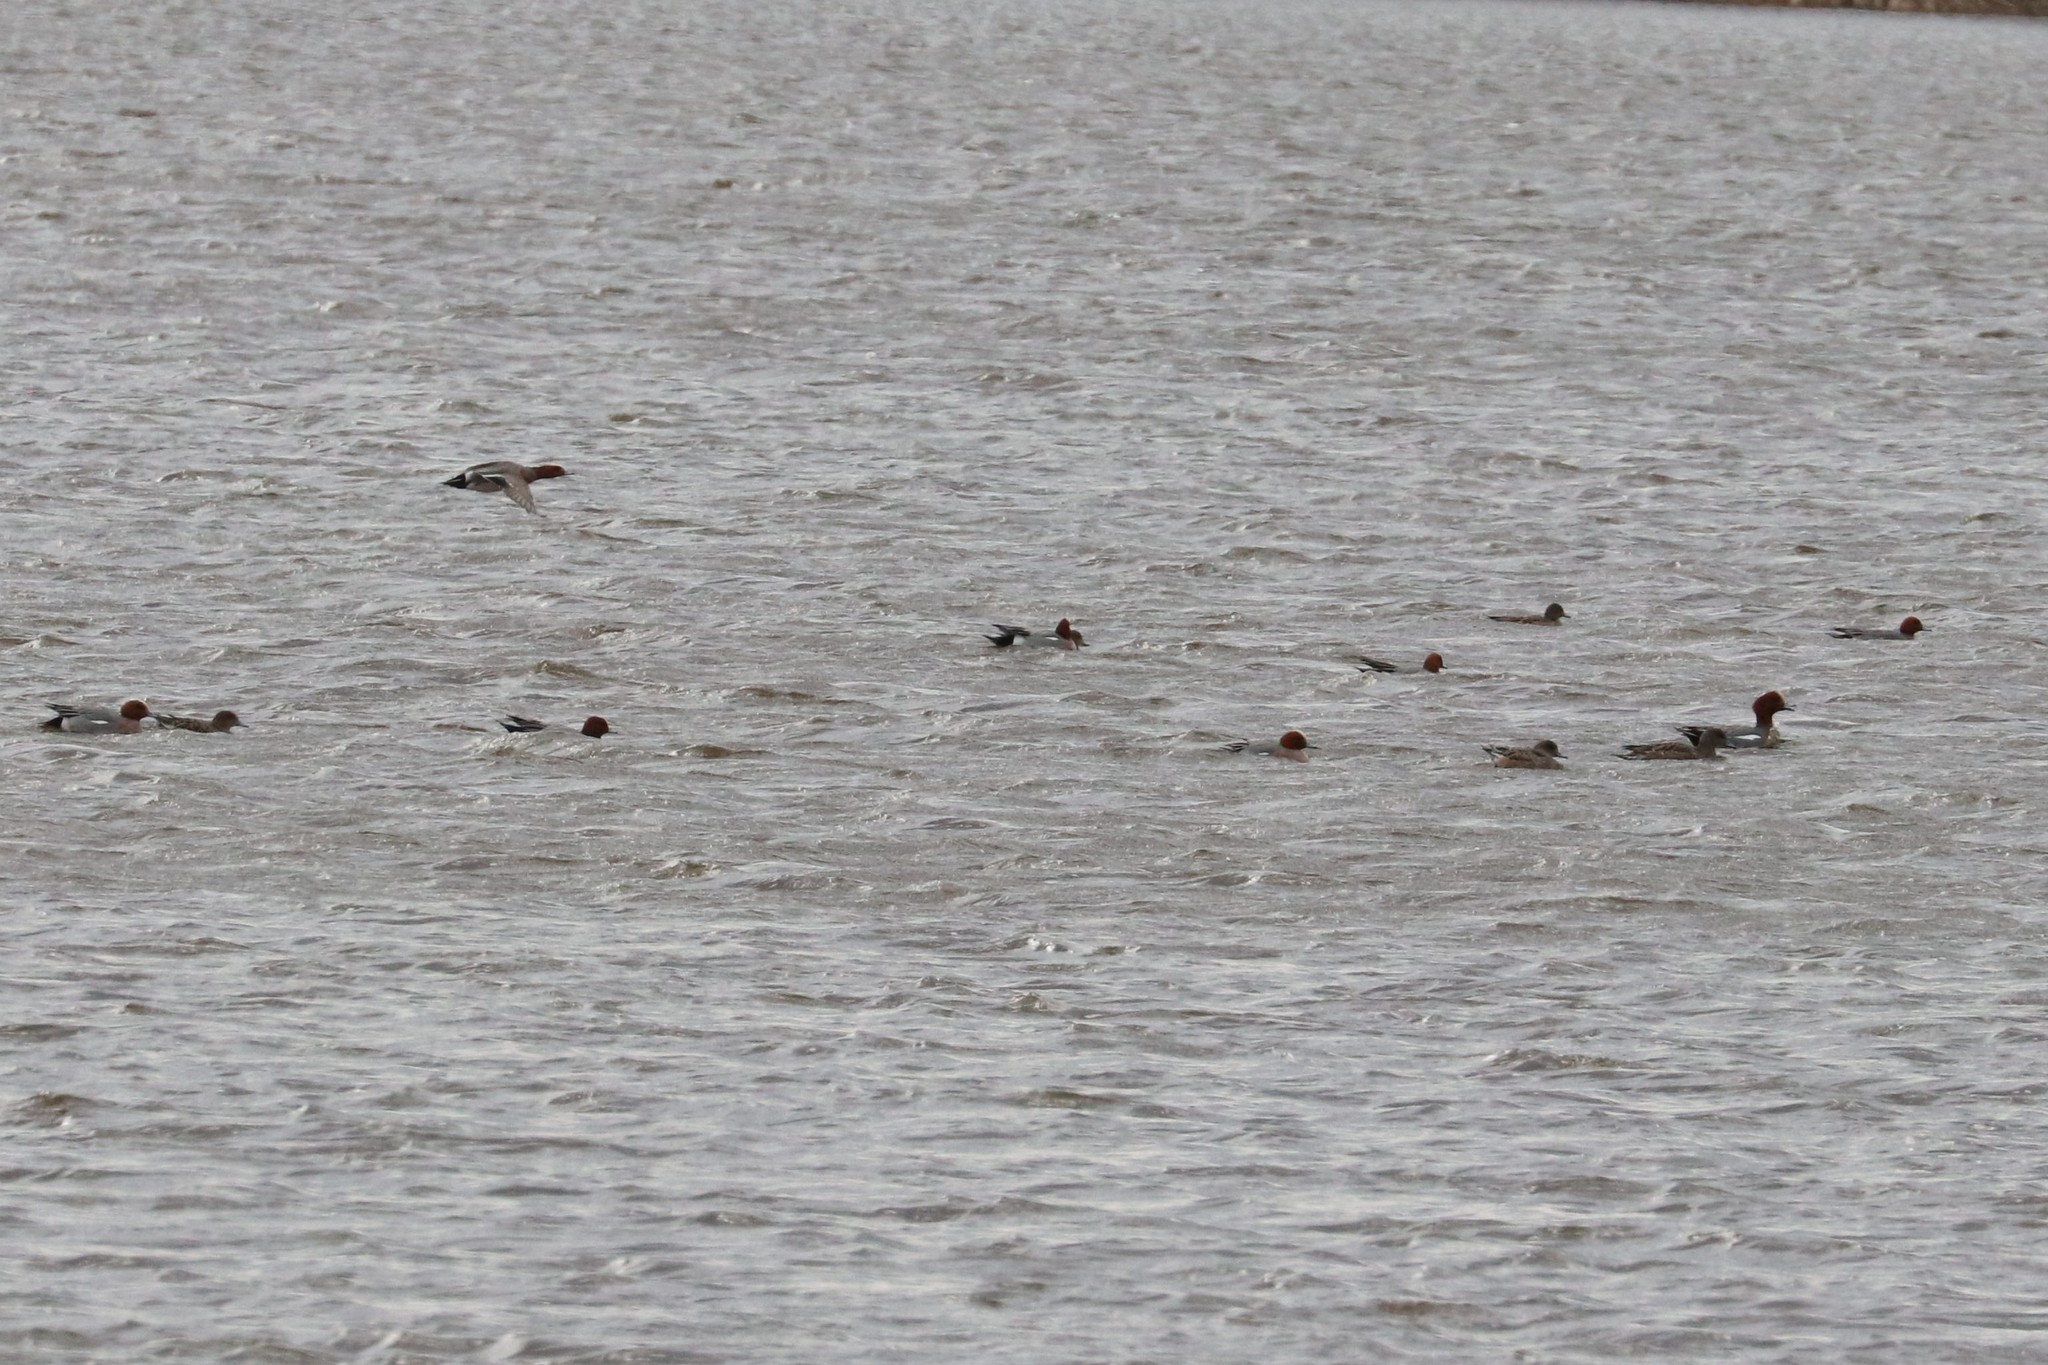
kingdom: Animalia
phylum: Chordata
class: Aves
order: Anseriformes
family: Anatidae
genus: Mareca
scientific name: Mareca penelope
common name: Eurasian wigeon
